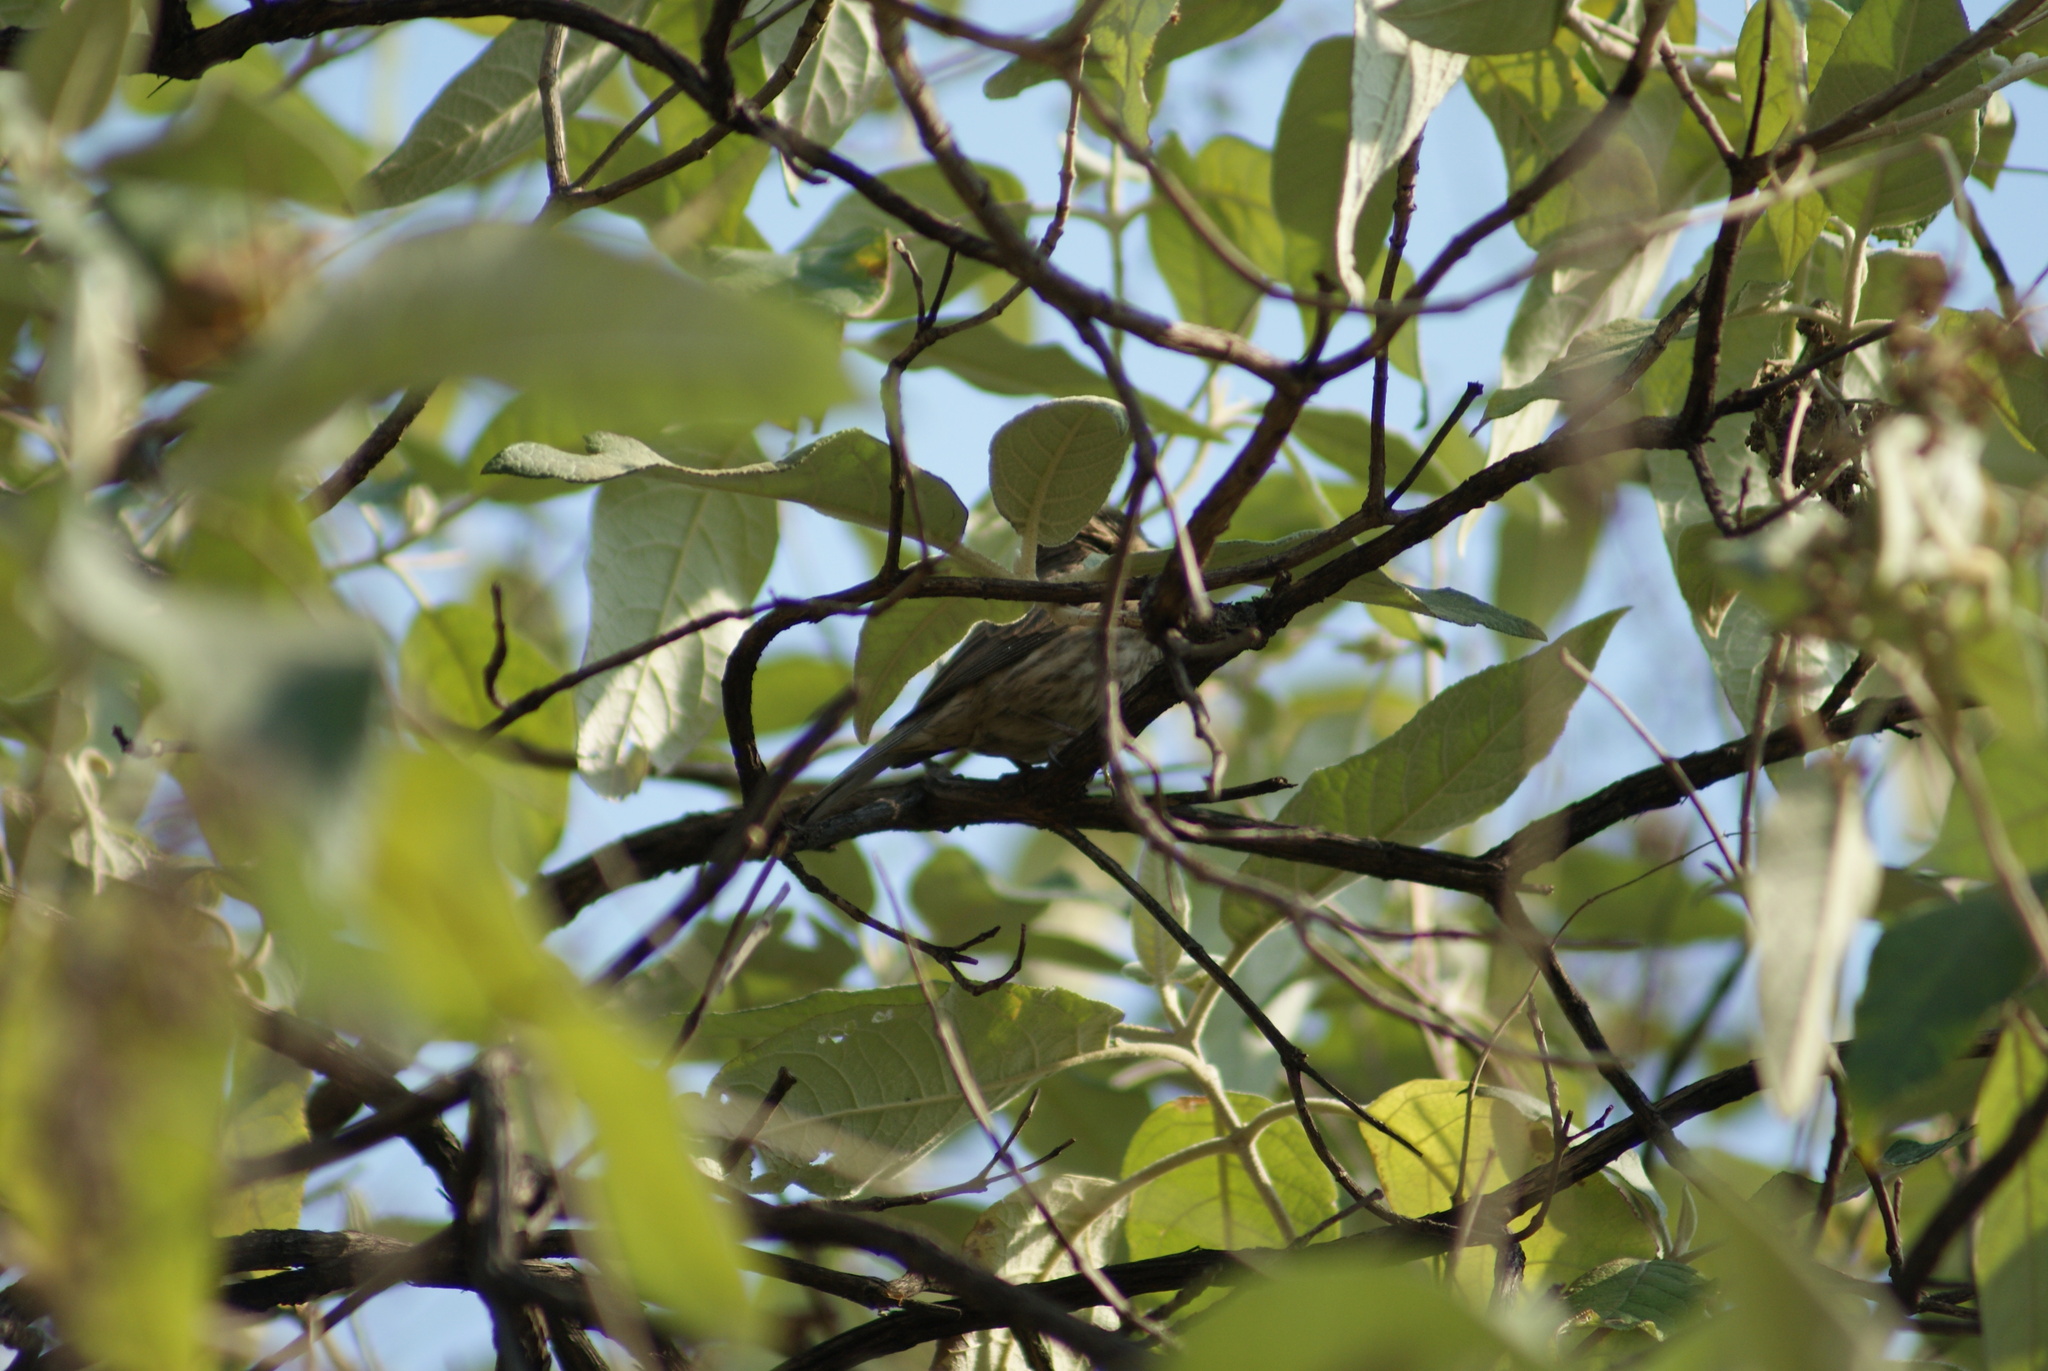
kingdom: Animalia
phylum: Chordata
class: Aves
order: Passeriformes
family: Fringillidae
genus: Haemorhous
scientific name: Haemorhous mexicanus
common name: House finch
